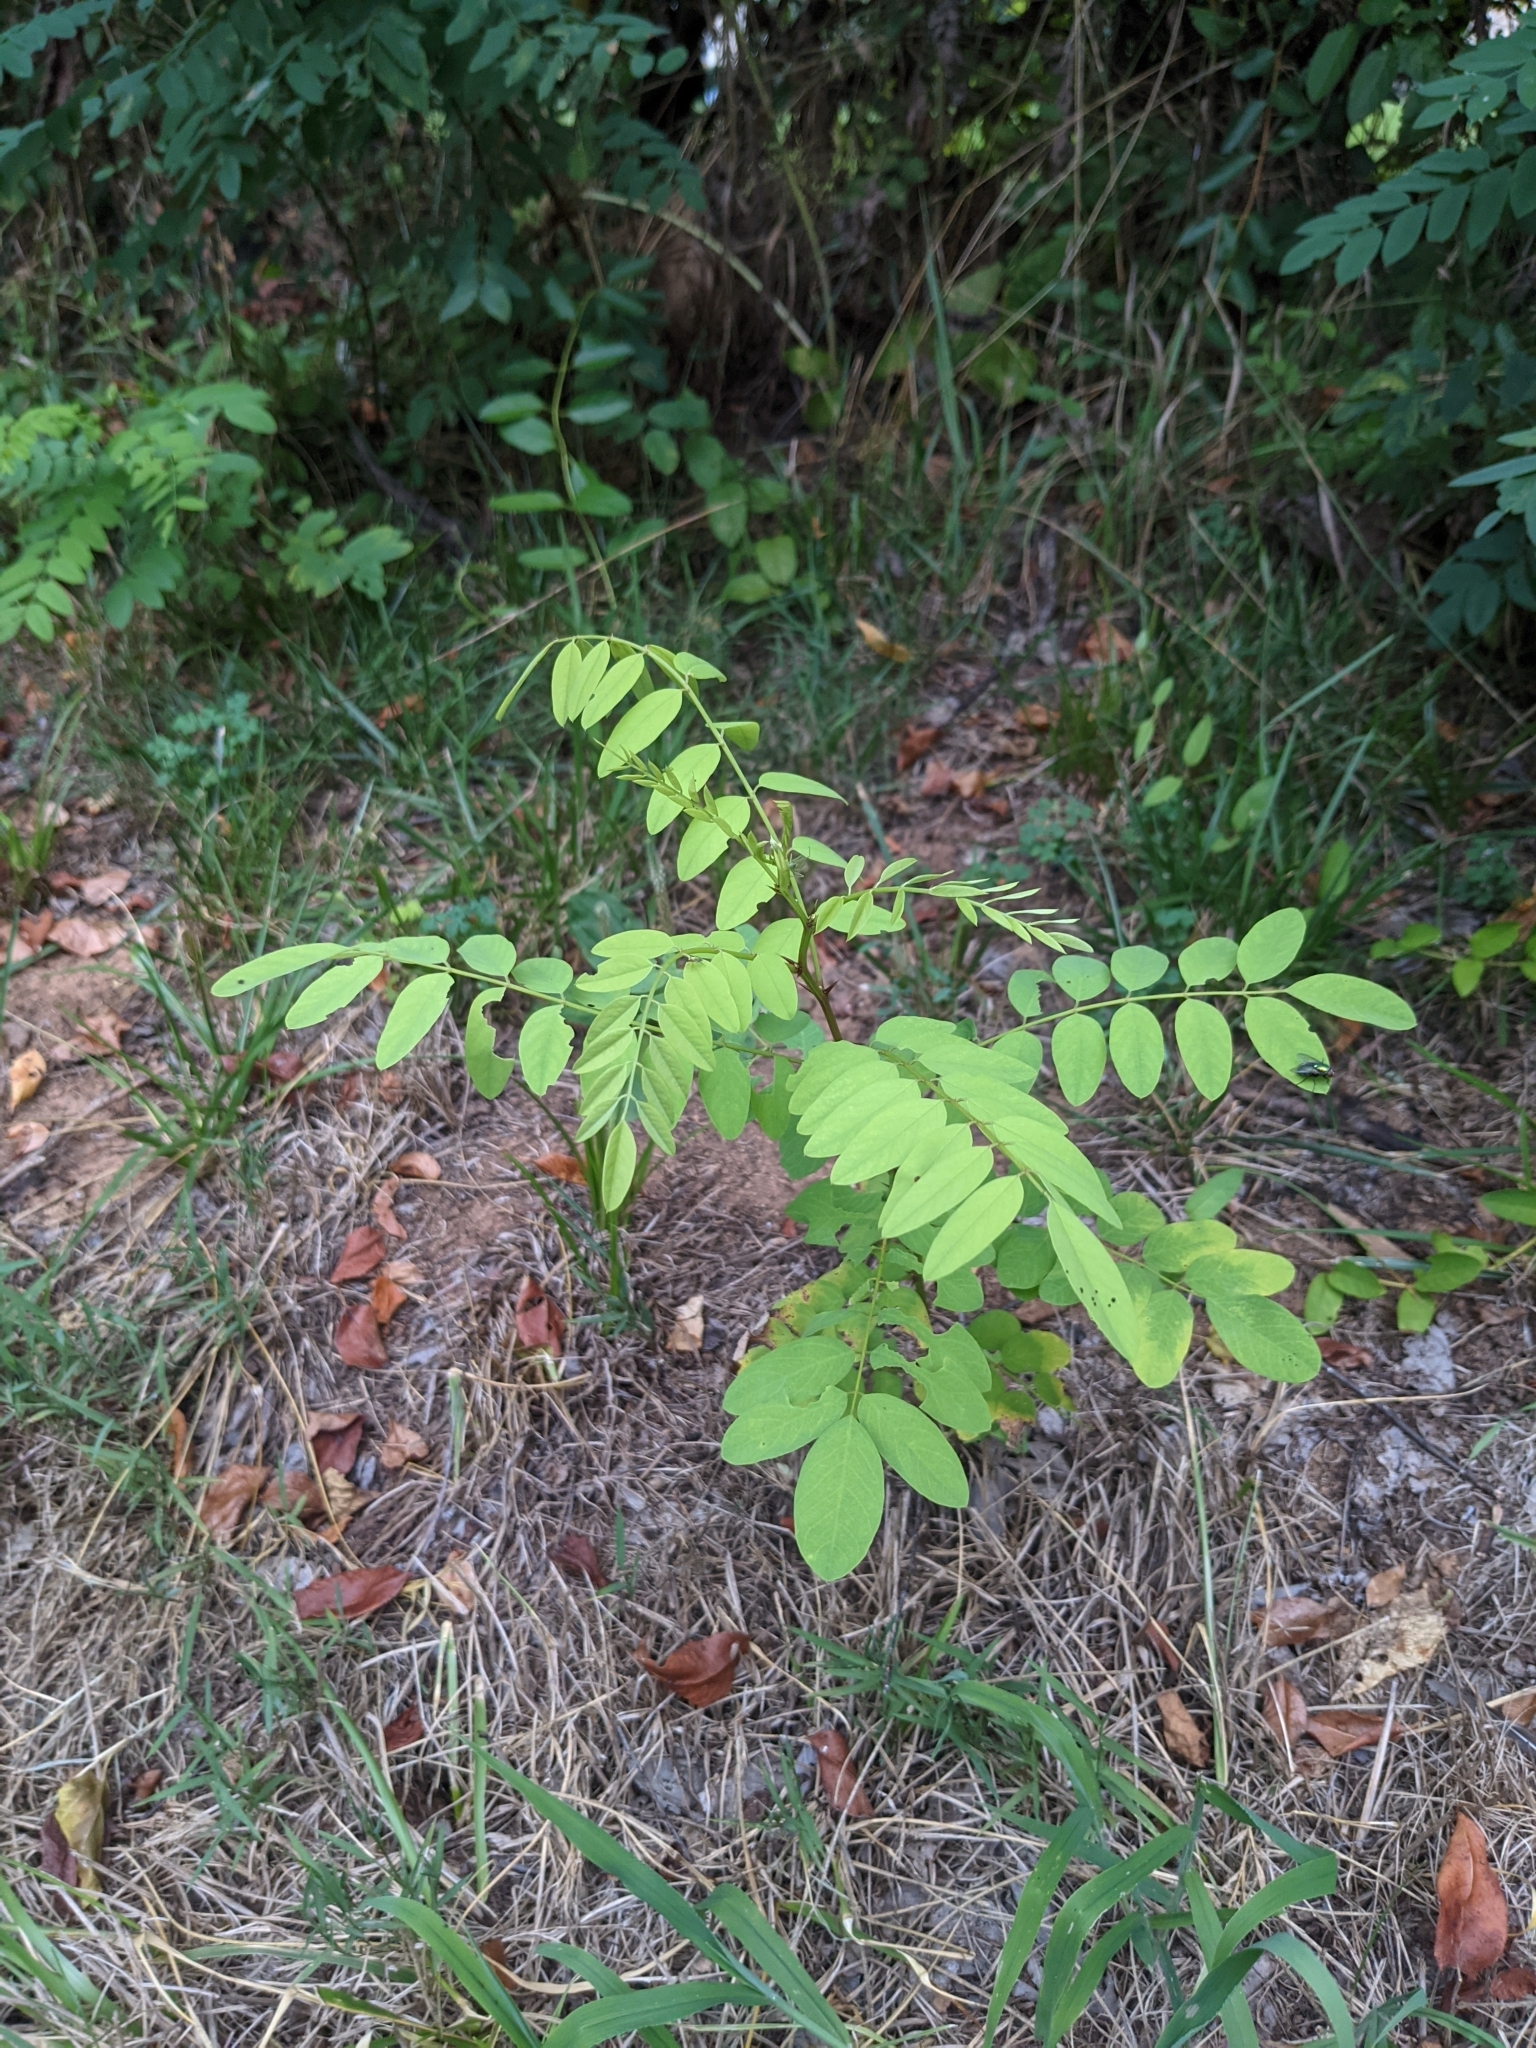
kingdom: Plantae
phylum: Tracheophyta
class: Magnoliopsida
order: Fabales
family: Fabaceae
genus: Robinia
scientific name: Robinia pseudoacacia
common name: Black locust
